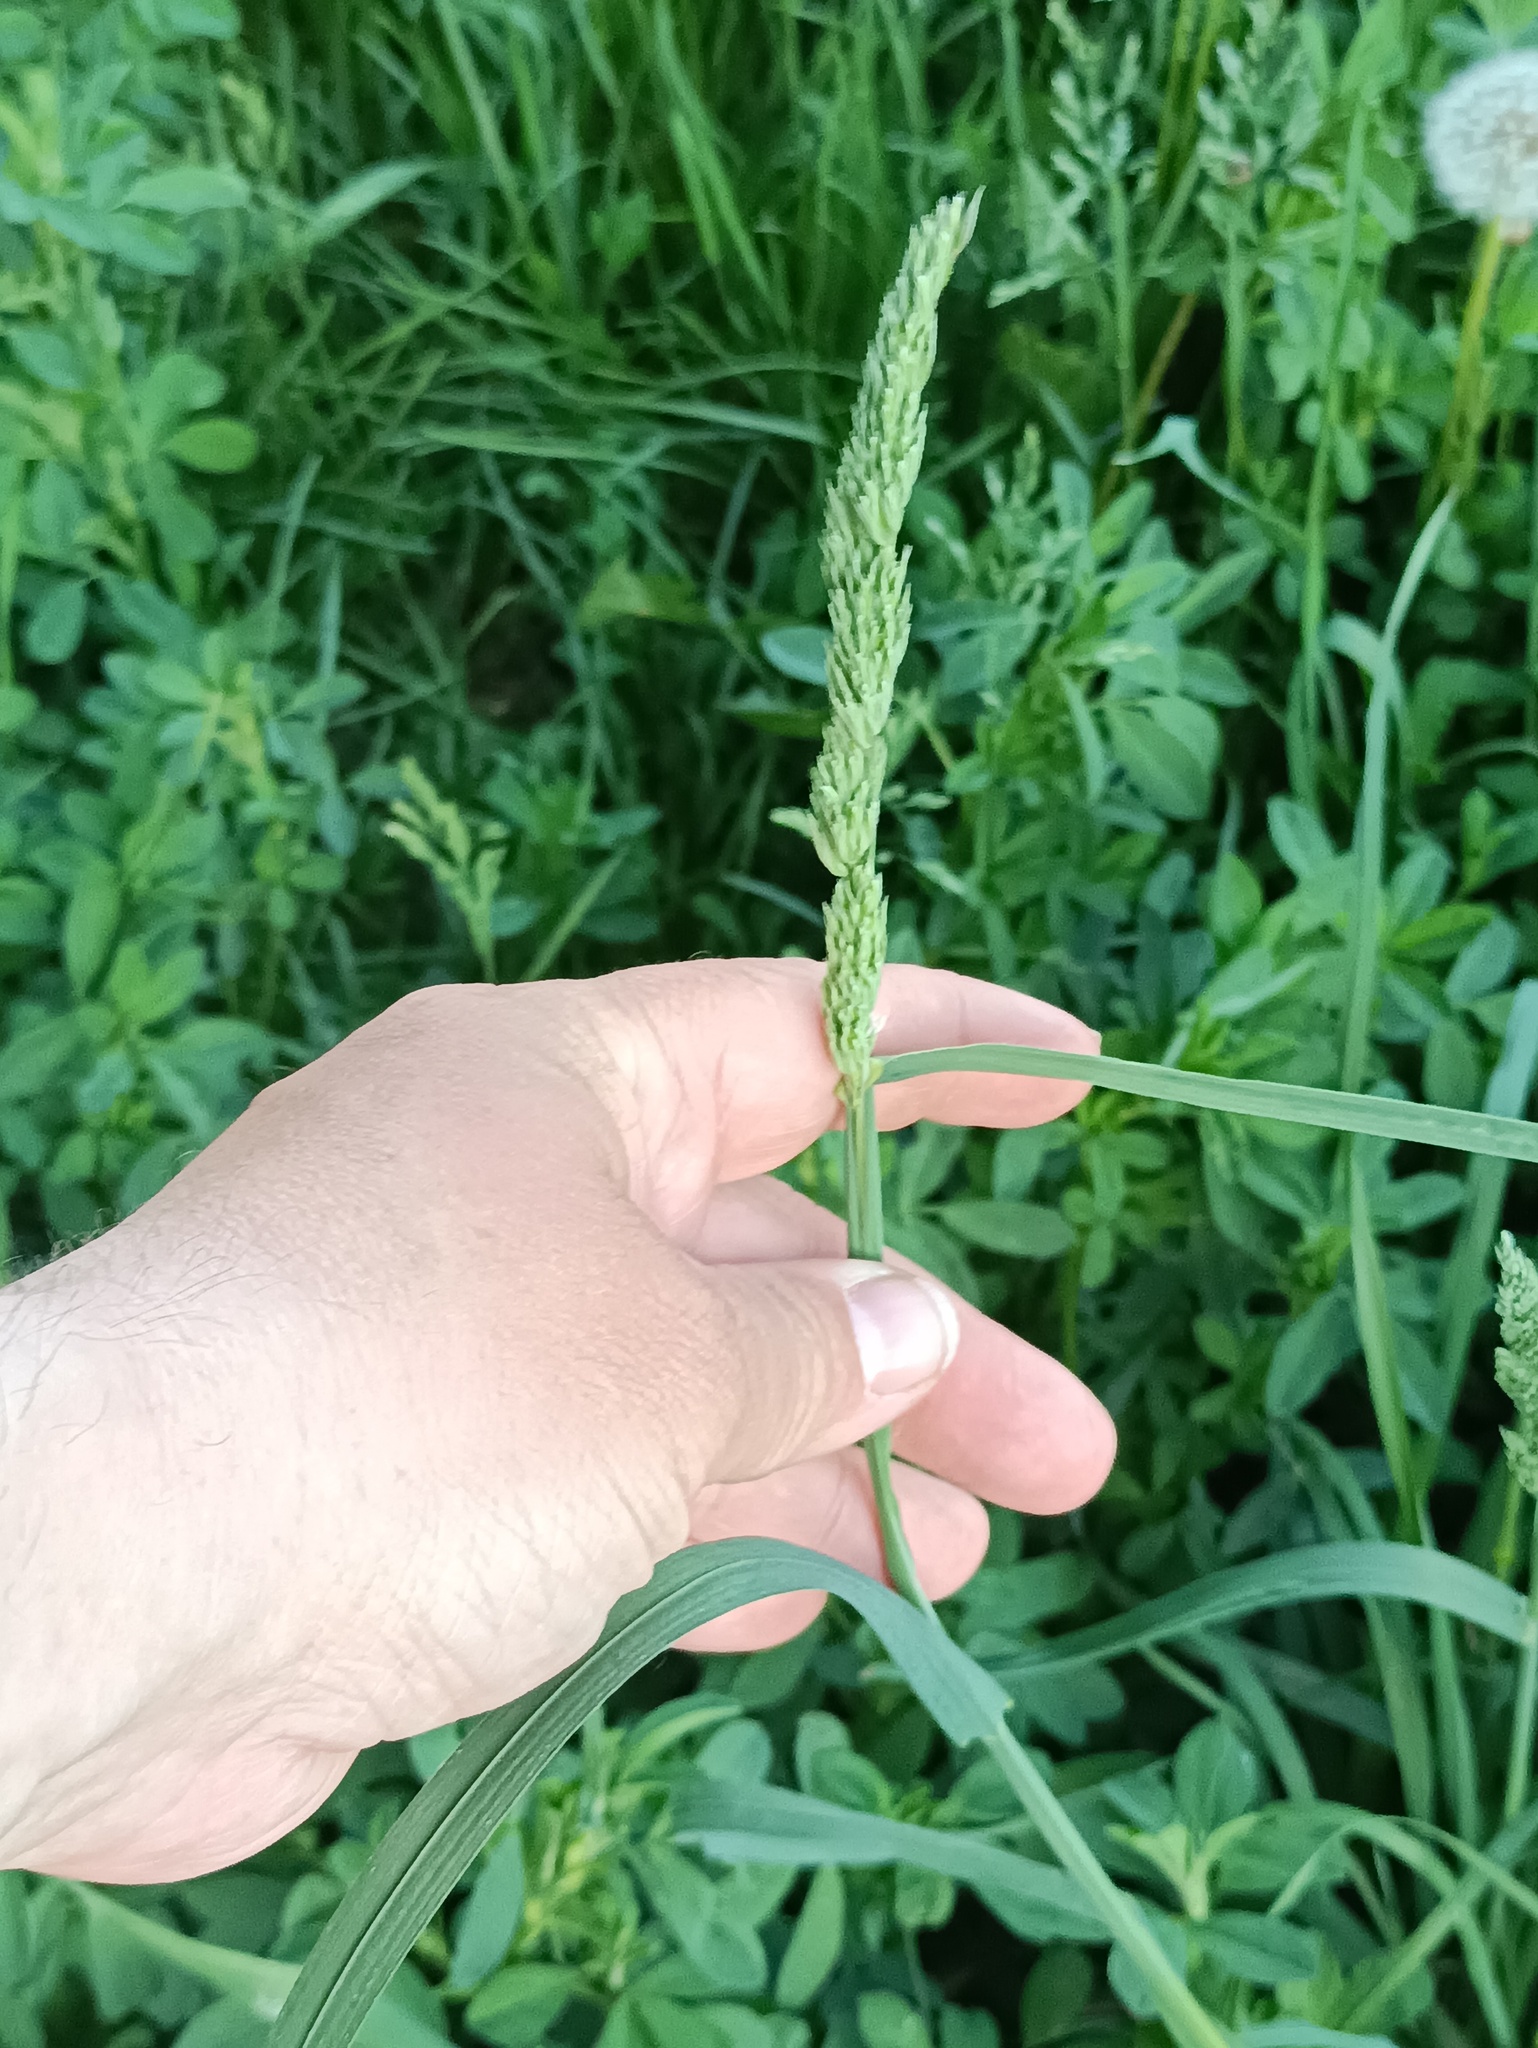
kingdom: Plantae
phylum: Tracheophyta
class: Liliopsida
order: Poales
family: Poaceae
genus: Dactylis
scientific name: Dactylis glomerata
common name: Orchardgrass
